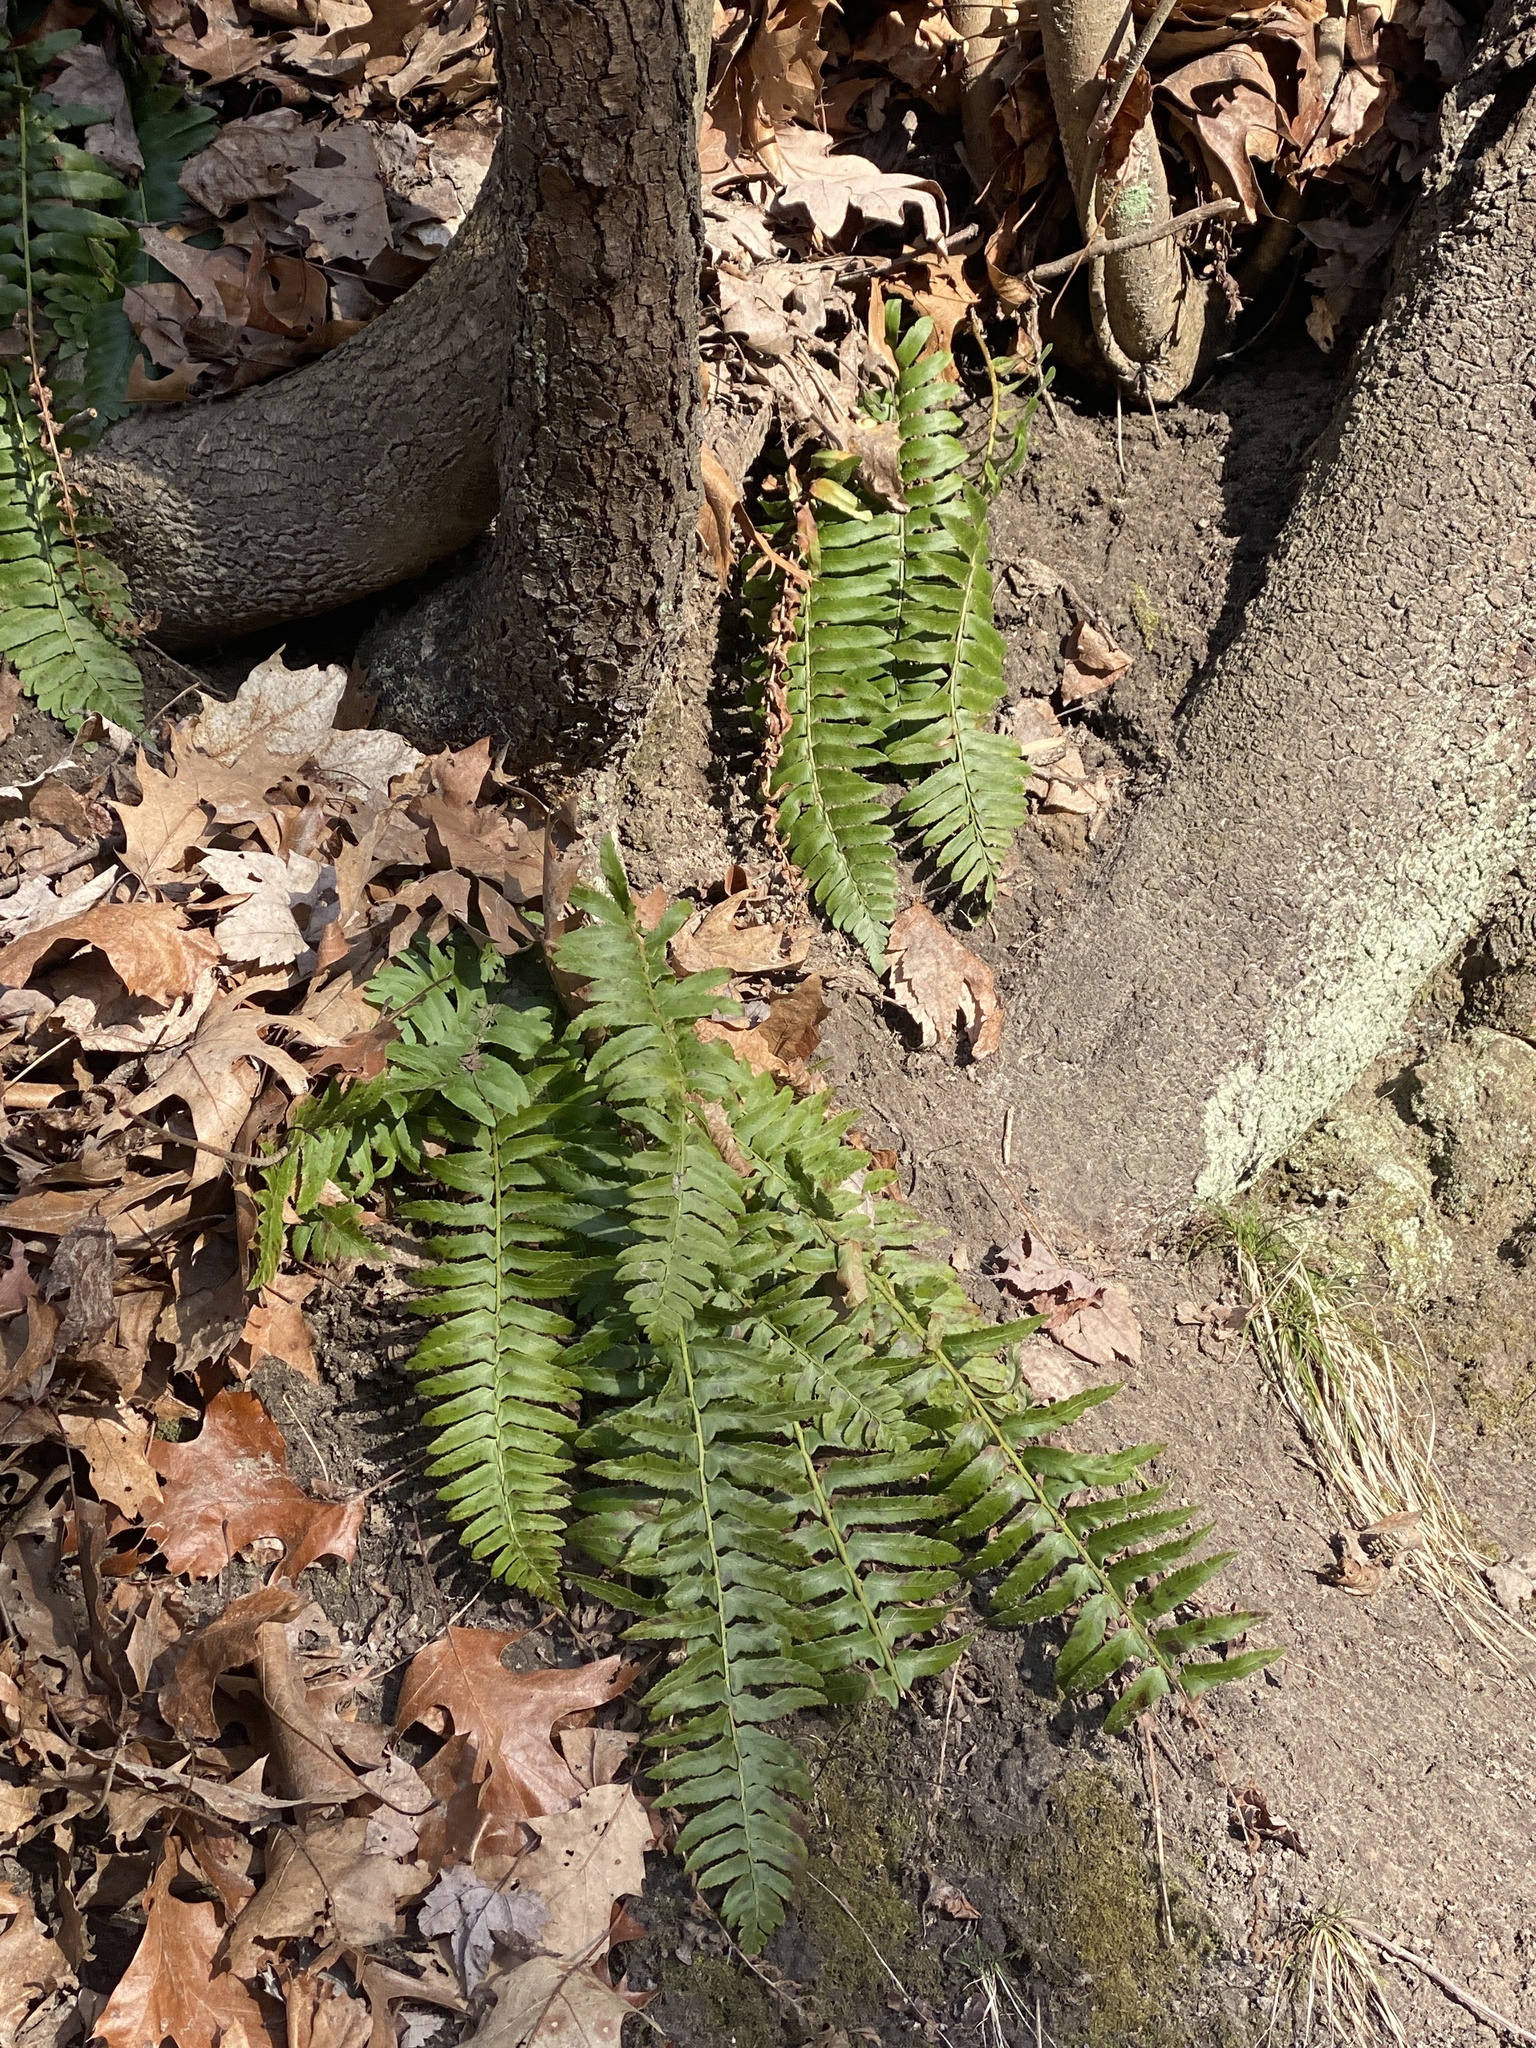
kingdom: Plantae
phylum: Tracheophyta
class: Polypodiopsida
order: Polypodiales
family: Dryopteridaceae
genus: Polystichum
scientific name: Polystichum acrostichoides
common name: Christmas fern
